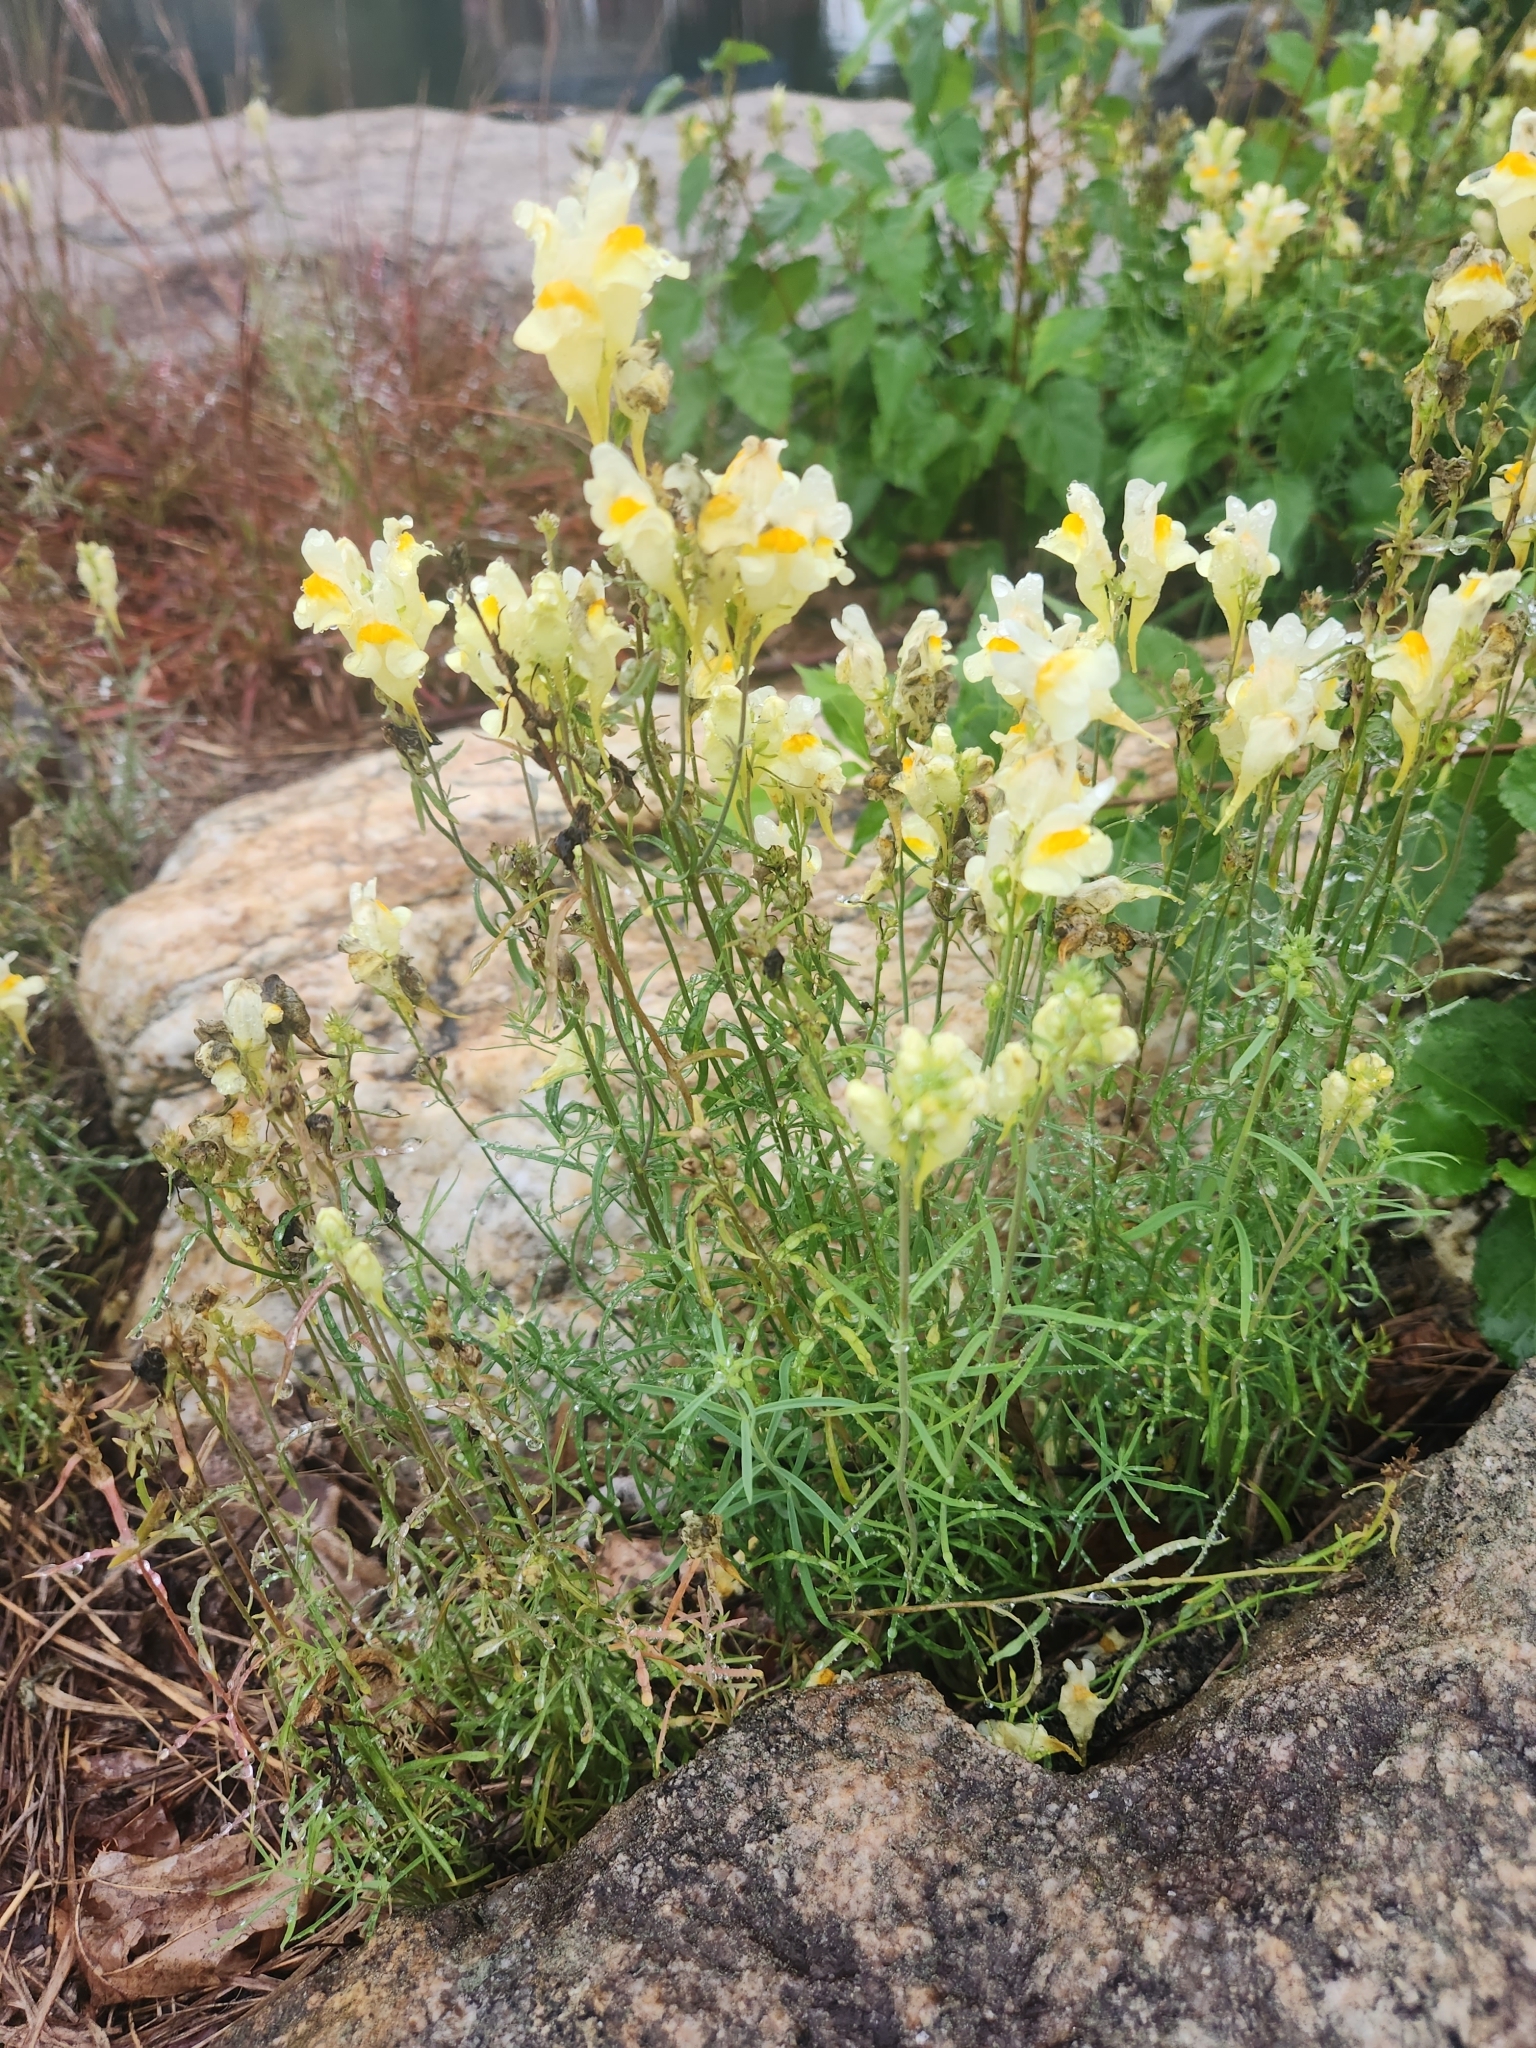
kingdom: Plantae
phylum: Tracheophyta
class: Magnoliopsida
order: Lamiales
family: Plantaginaceae
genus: Linaria
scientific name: Linaria vulgaris
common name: Butter and eggs
